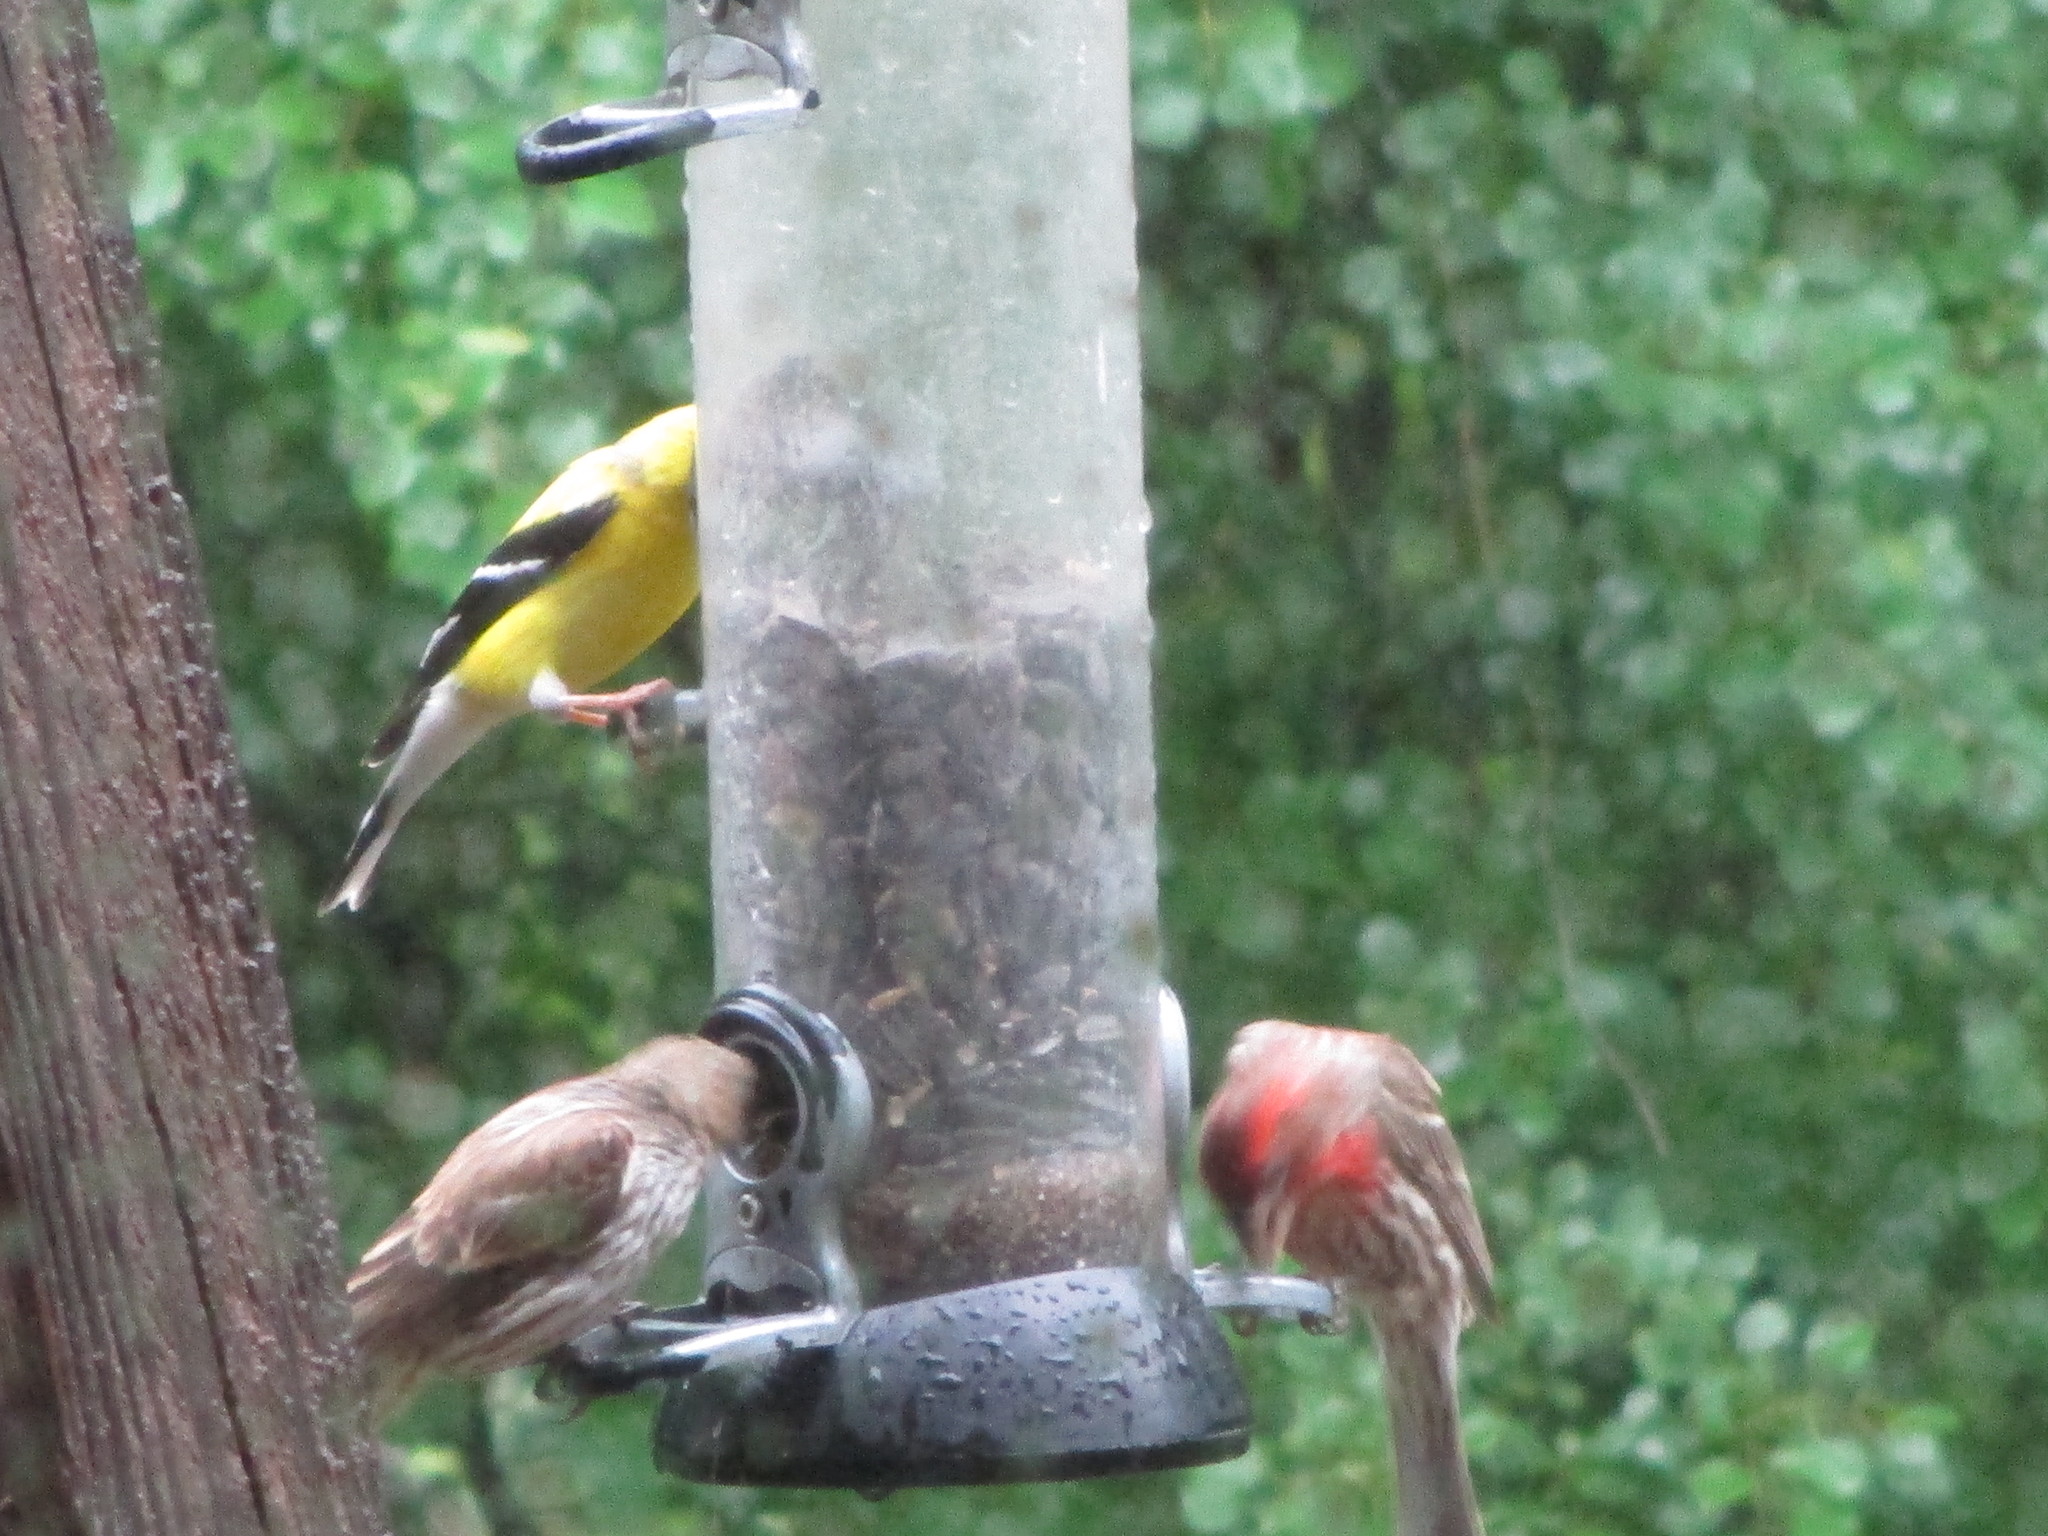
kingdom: Animalia
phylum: Chordata
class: Aves
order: Passeriformes
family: Fringillidae
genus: Spinus
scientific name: Spinus tristis
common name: American goldfinch
